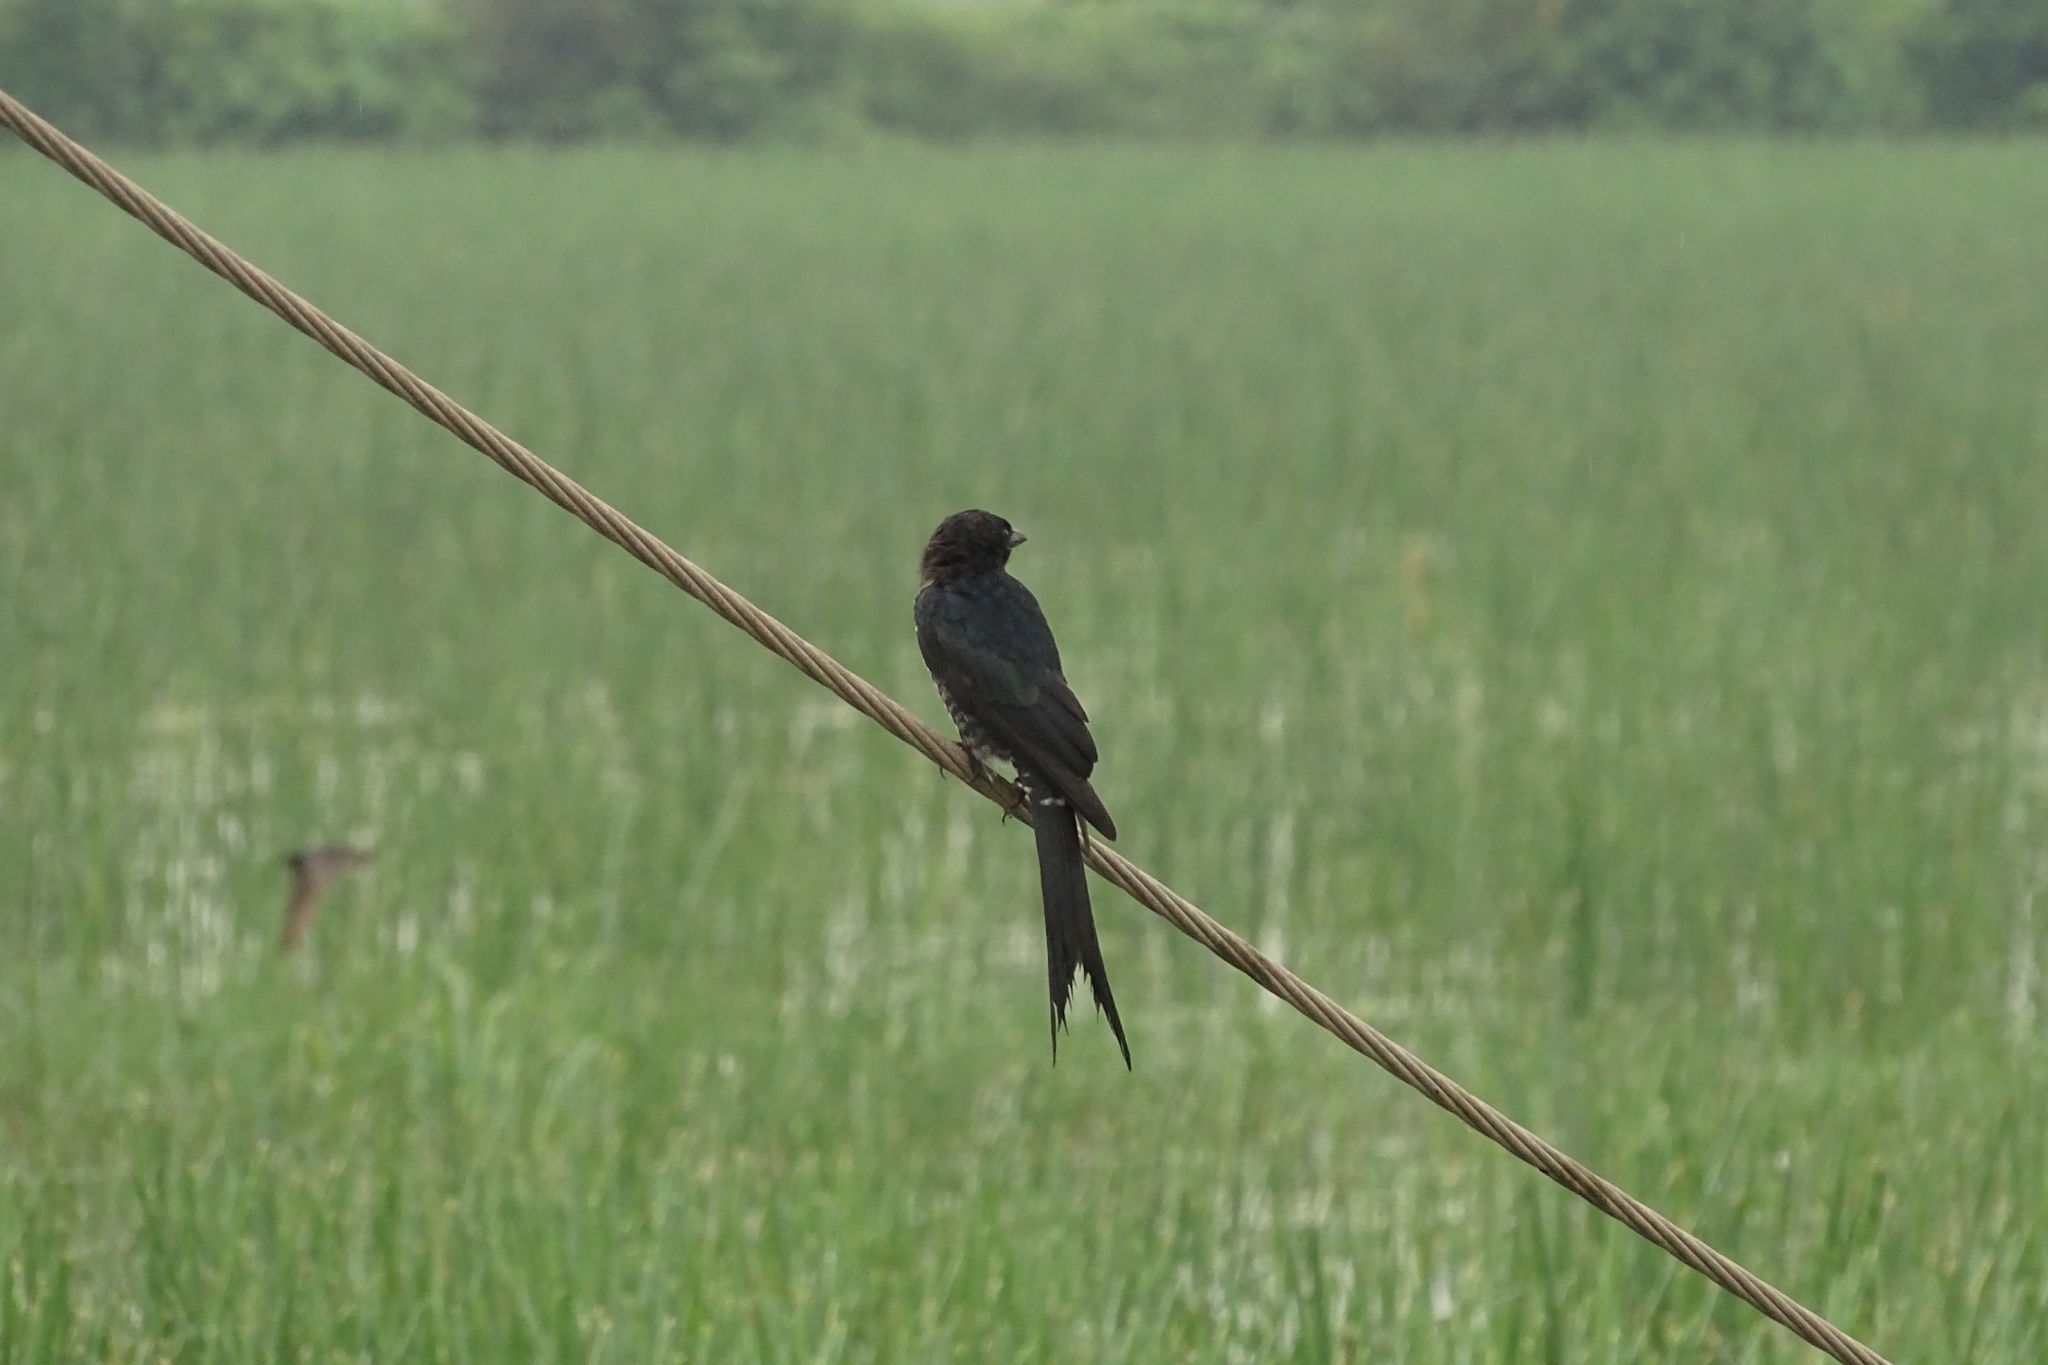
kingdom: Animalia
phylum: Chordata
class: Aves
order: Passeriformes
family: Dicruridae
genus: Dicrurus
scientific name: Dicrurus macrocercus
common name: Black drongo
